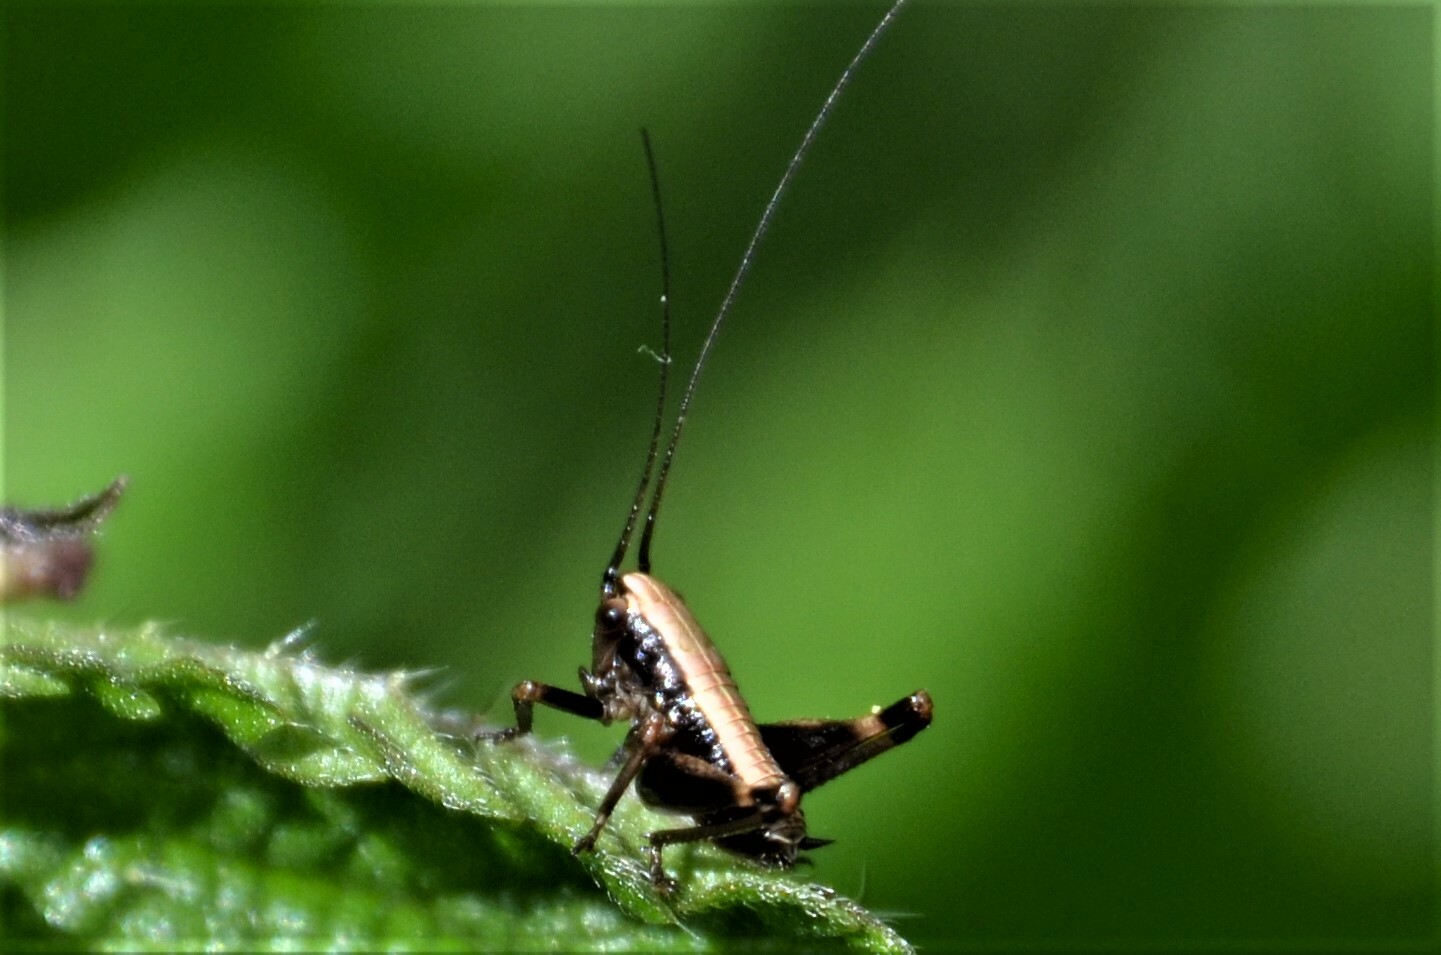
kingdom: Animalia
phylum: Arthropoda
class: Insecta
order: Orthoptera
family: Tettigoniidae
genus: Pholidoptera
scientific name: Pholidoptera griseoaptera
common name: Dark bush-cricket
